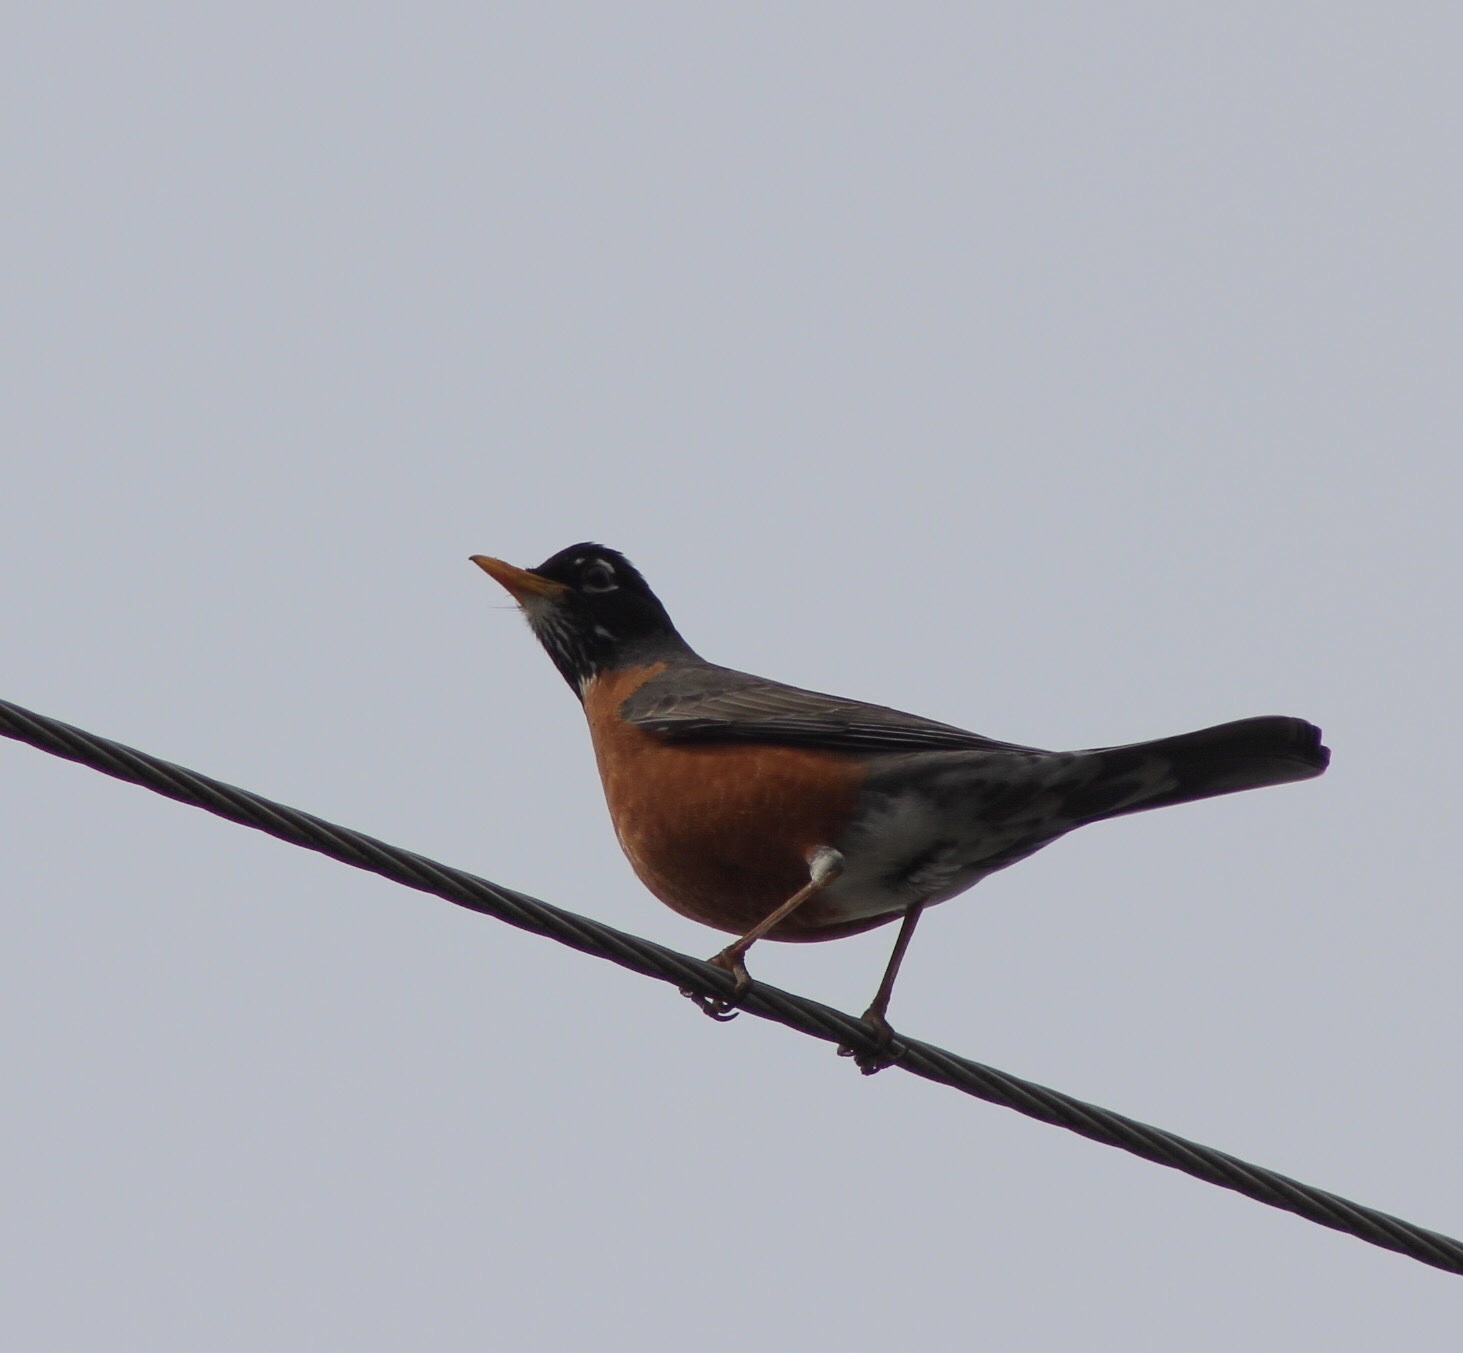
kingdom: Animalia
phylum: Chordata
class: Aves
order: Passeriformes
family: Turdidae
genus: Turdus
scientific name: Turdus migratorius
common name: American robin
